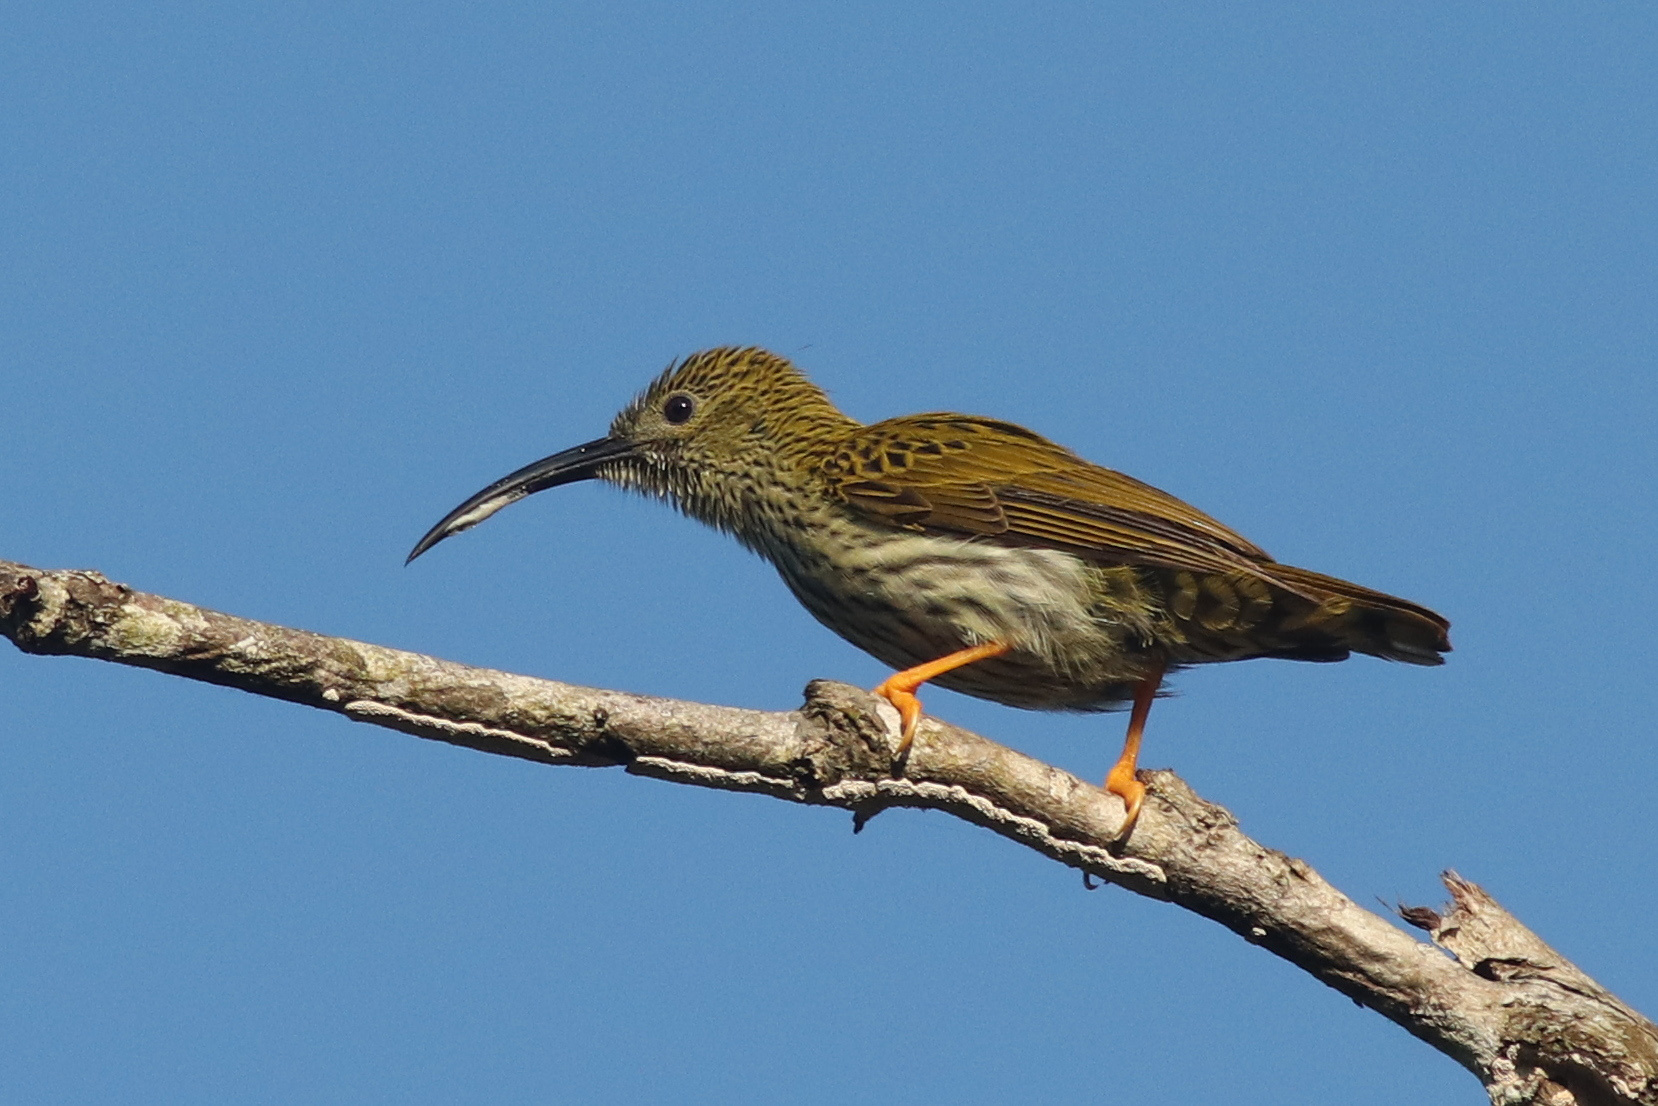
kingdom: Animalia
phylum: Chordata
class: Aves
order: Passeriformes
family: Nectariniidae
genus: Arachnothera
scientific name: Arachnothera magna
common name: Streaked spiderhunter
